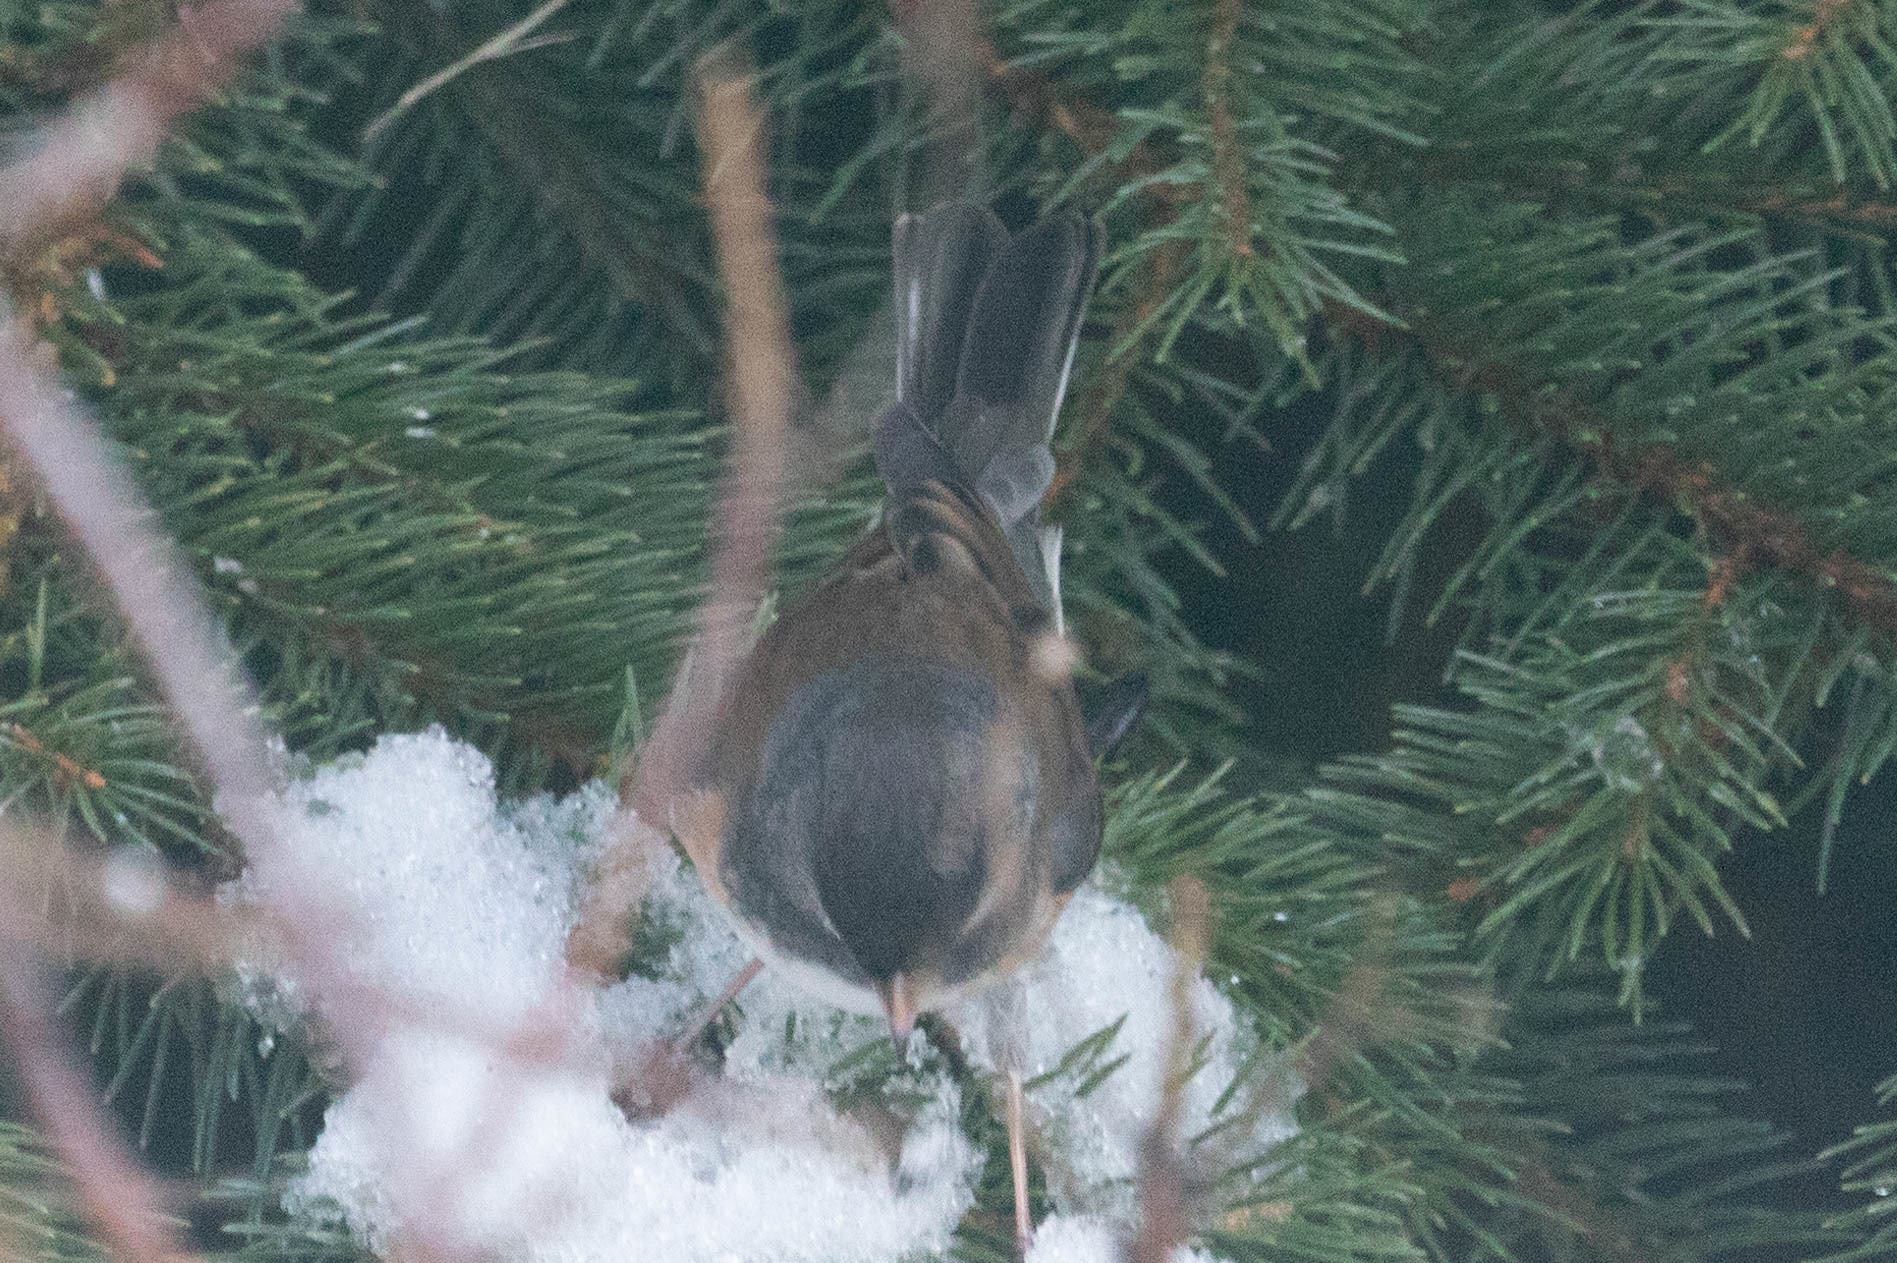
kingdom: Animalia
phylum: Chordata
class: Aves
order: Passeriformes
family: Passerellidae
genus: Junco
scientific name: Junco hyemalis
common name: Dark-eyed junco
